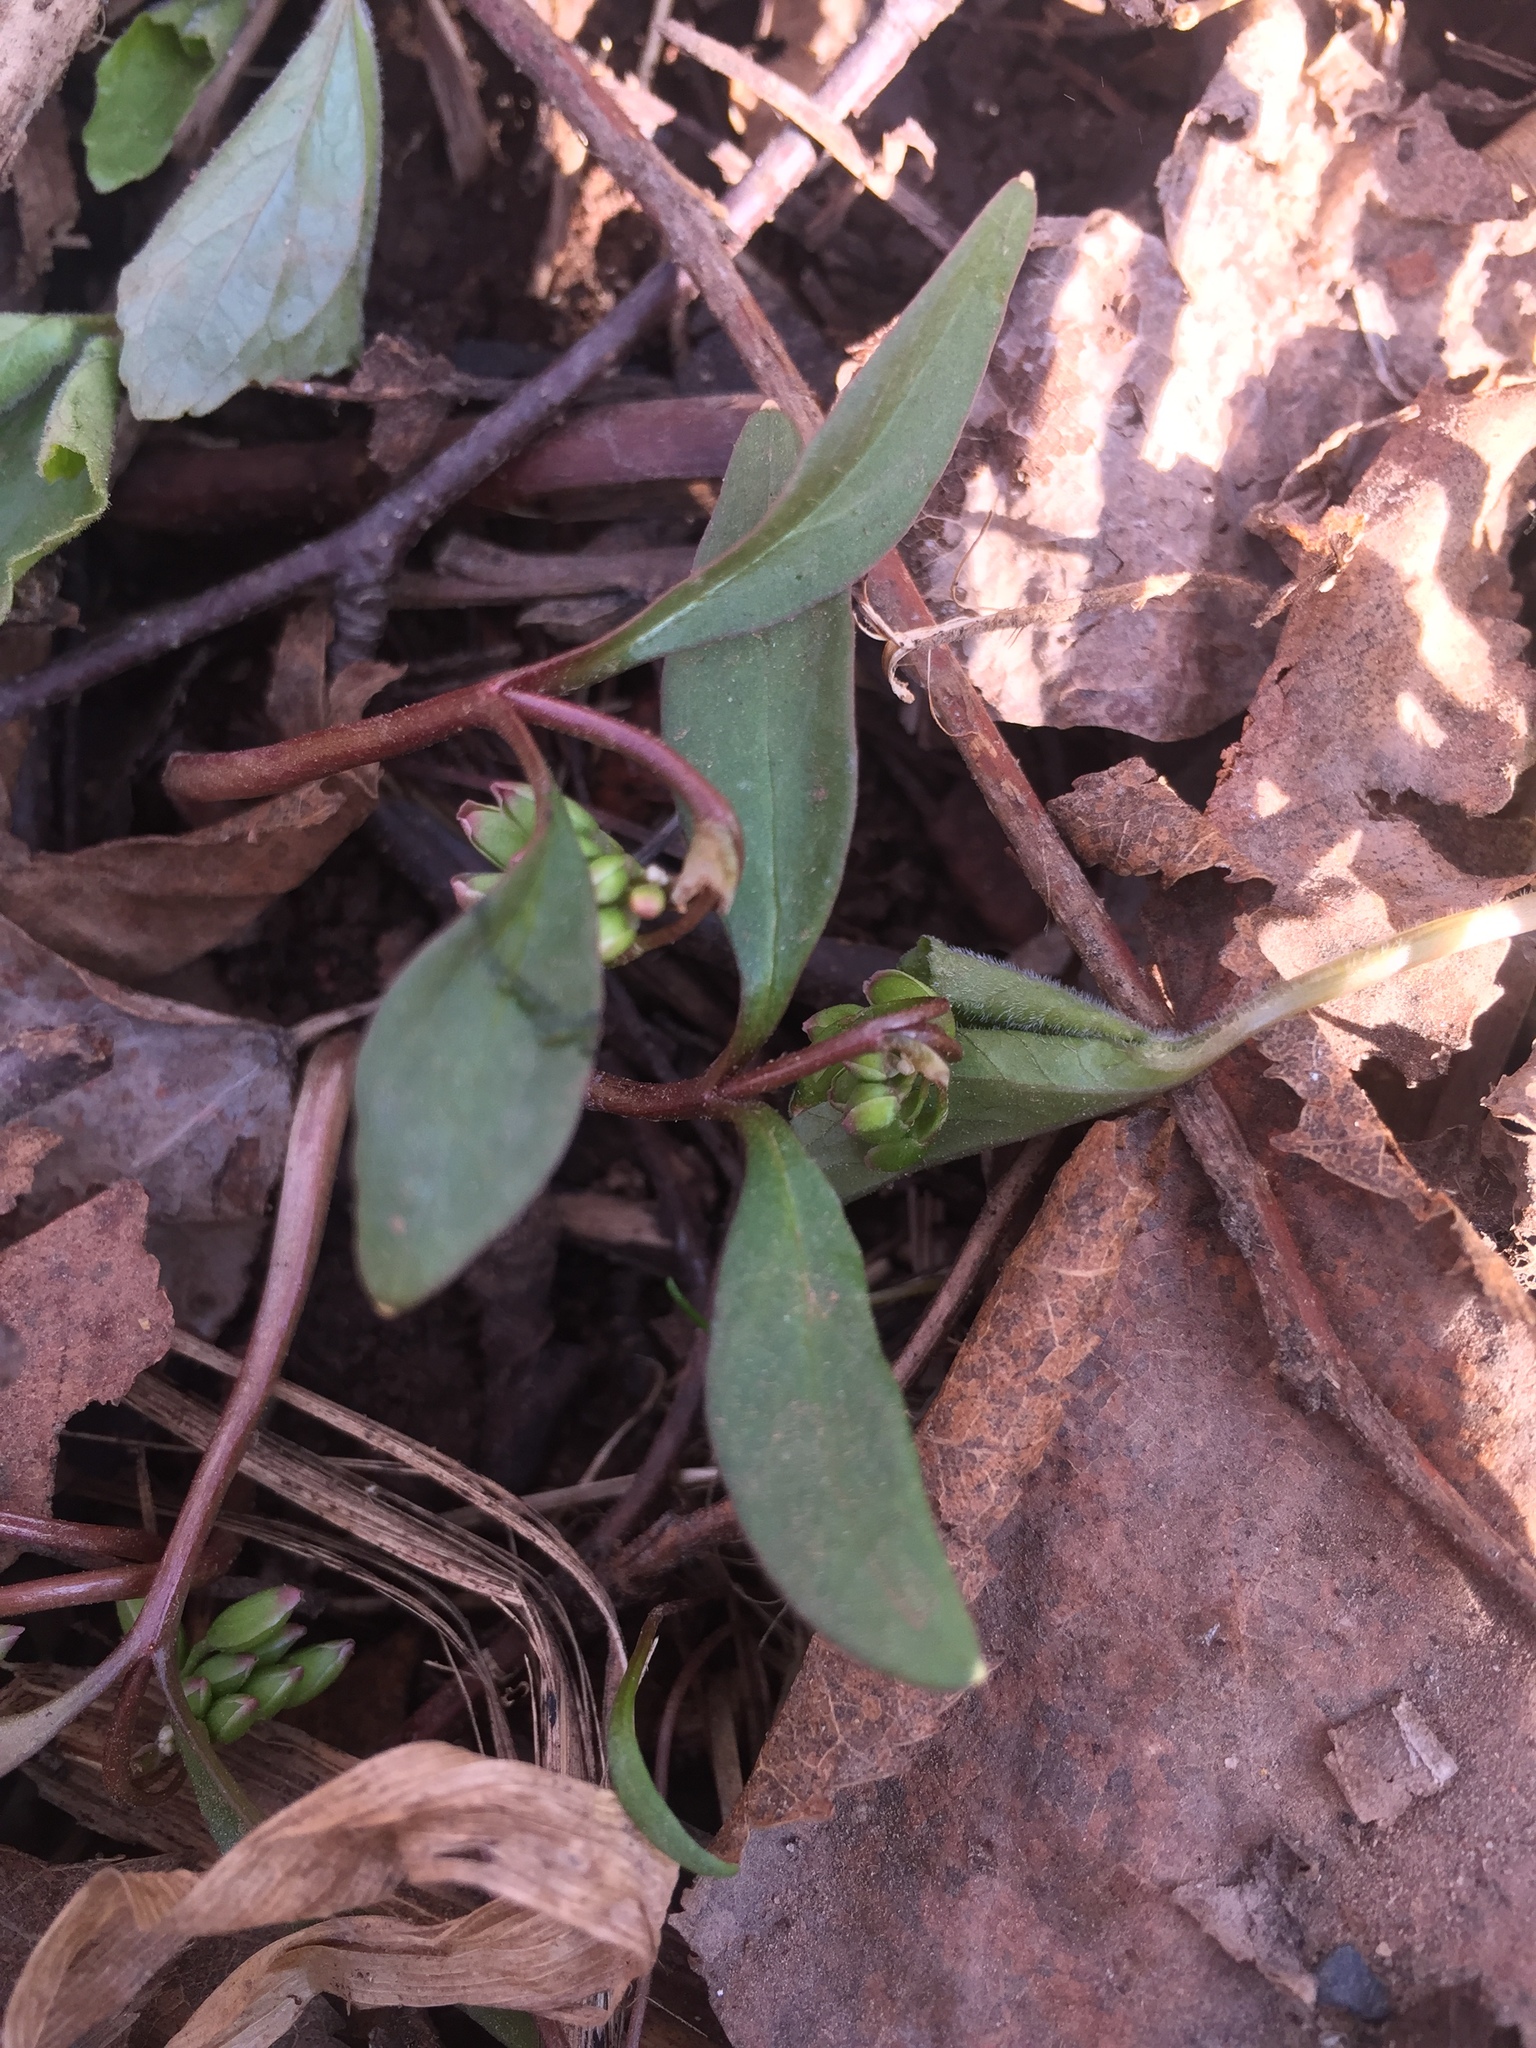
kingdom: Plantae
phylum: Tracheophyta
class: Magnoliopsida
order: Caryophyllales
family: Montiaceae
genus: Claytonia
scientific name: Claytonia caroliniana
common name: Carolina spring beauty
